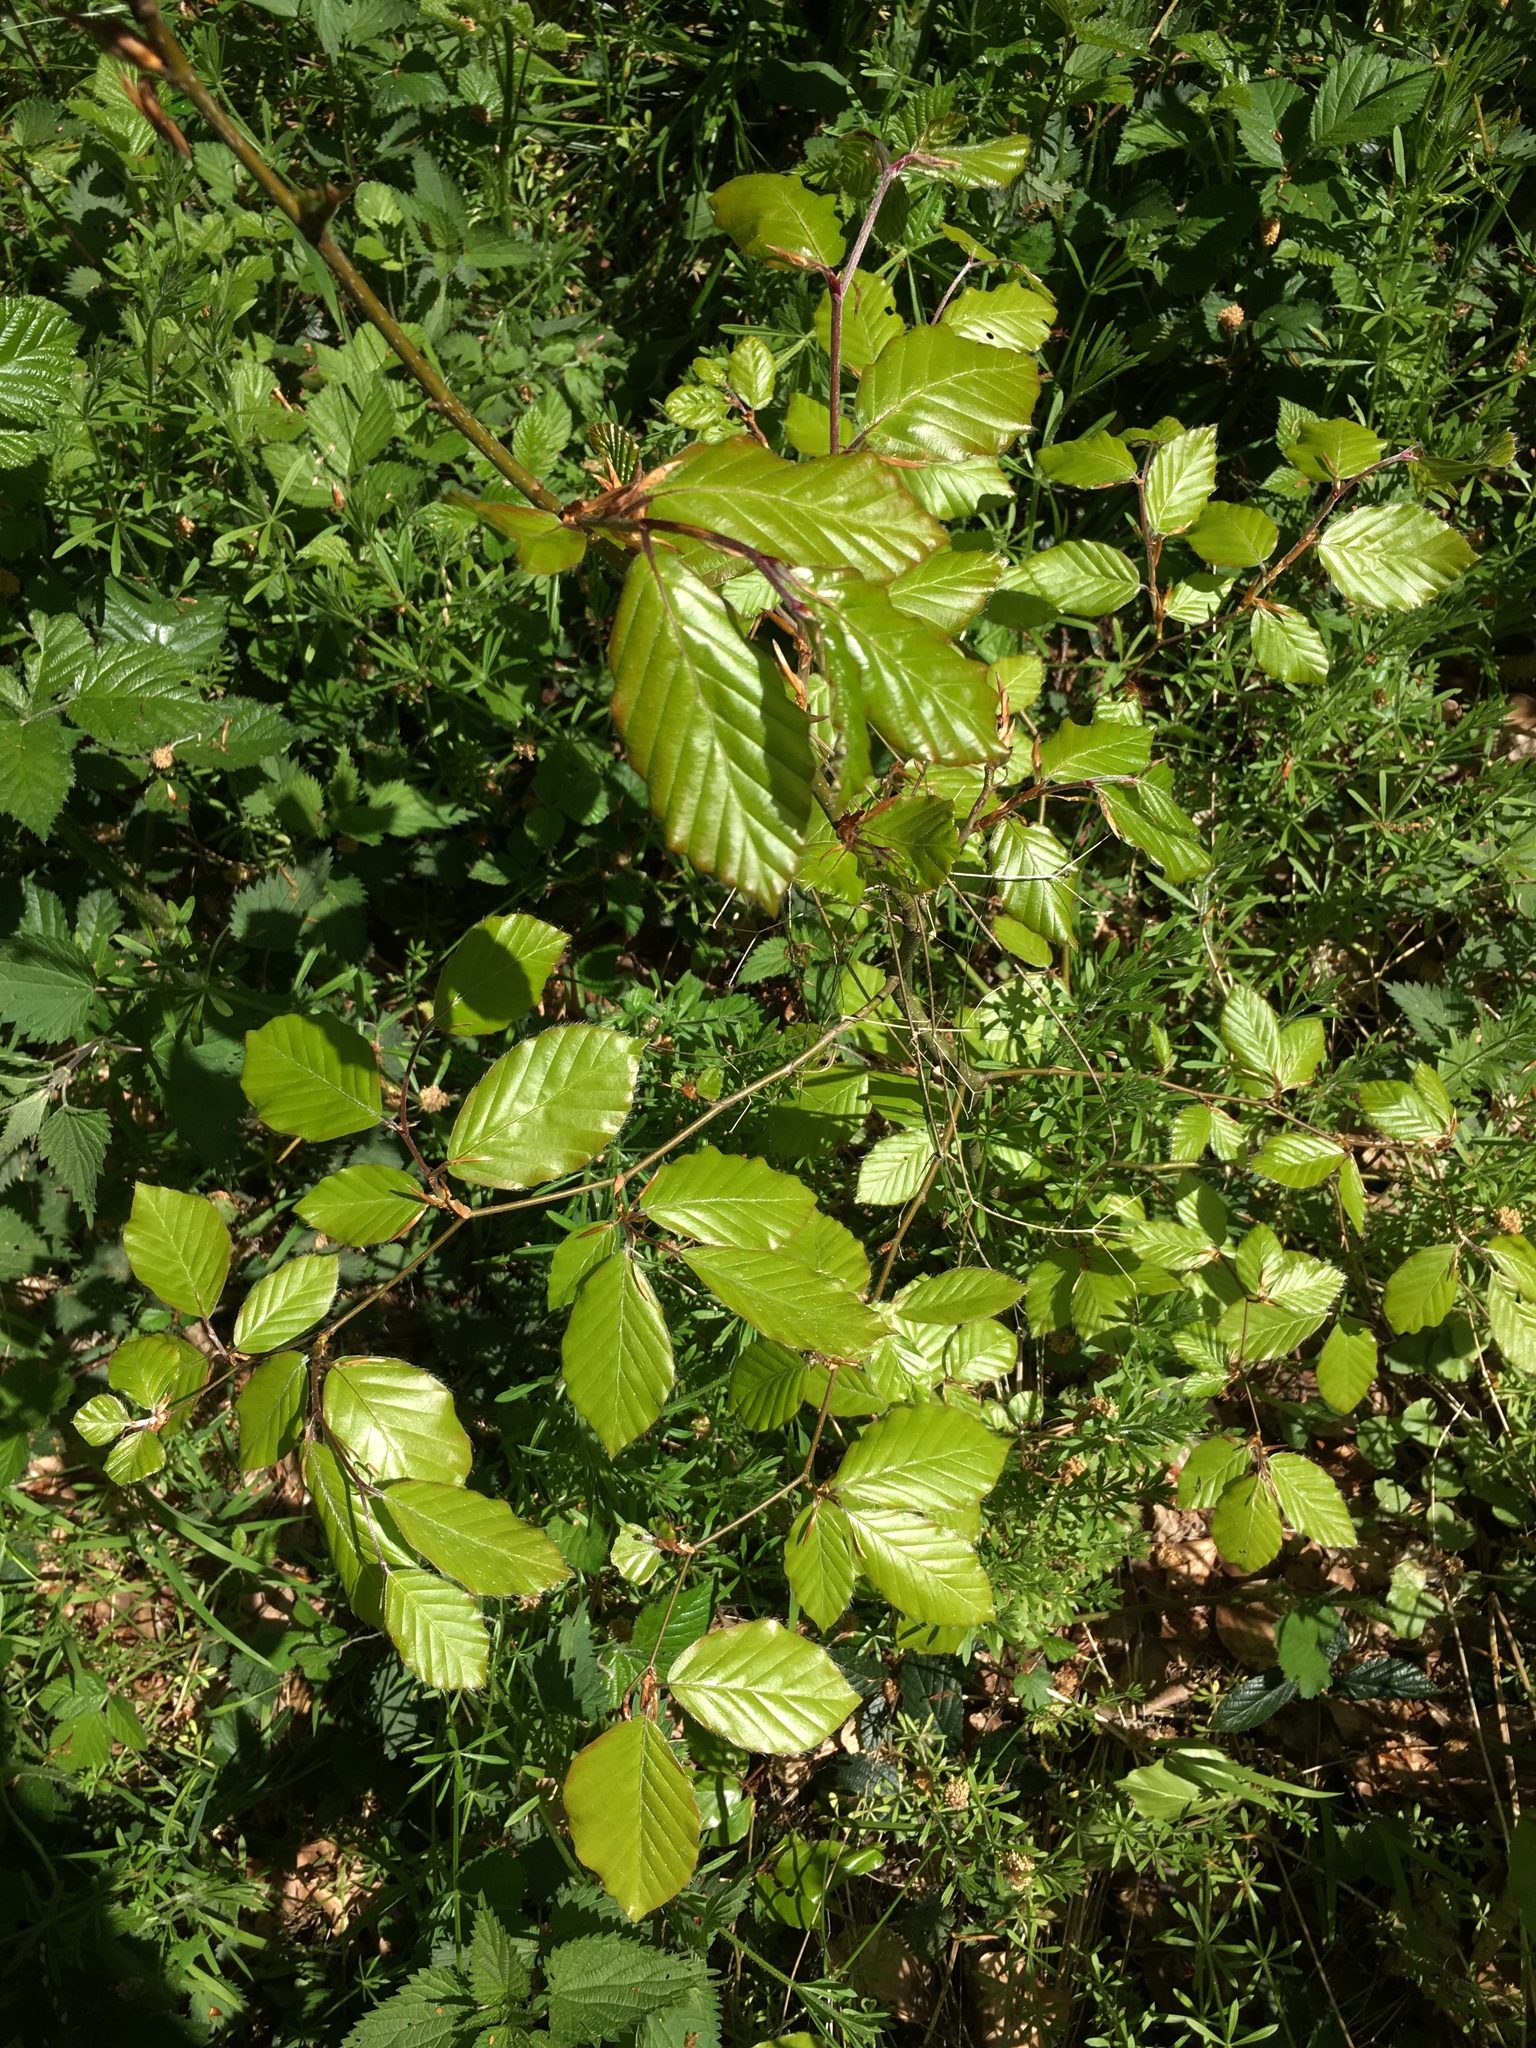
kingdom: Plantae
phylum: Tracheophyta
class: Magnoliopsida
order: Fagales
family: Fagaceae
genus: Fagus
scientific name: Fagus sylvatica
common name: Beech
